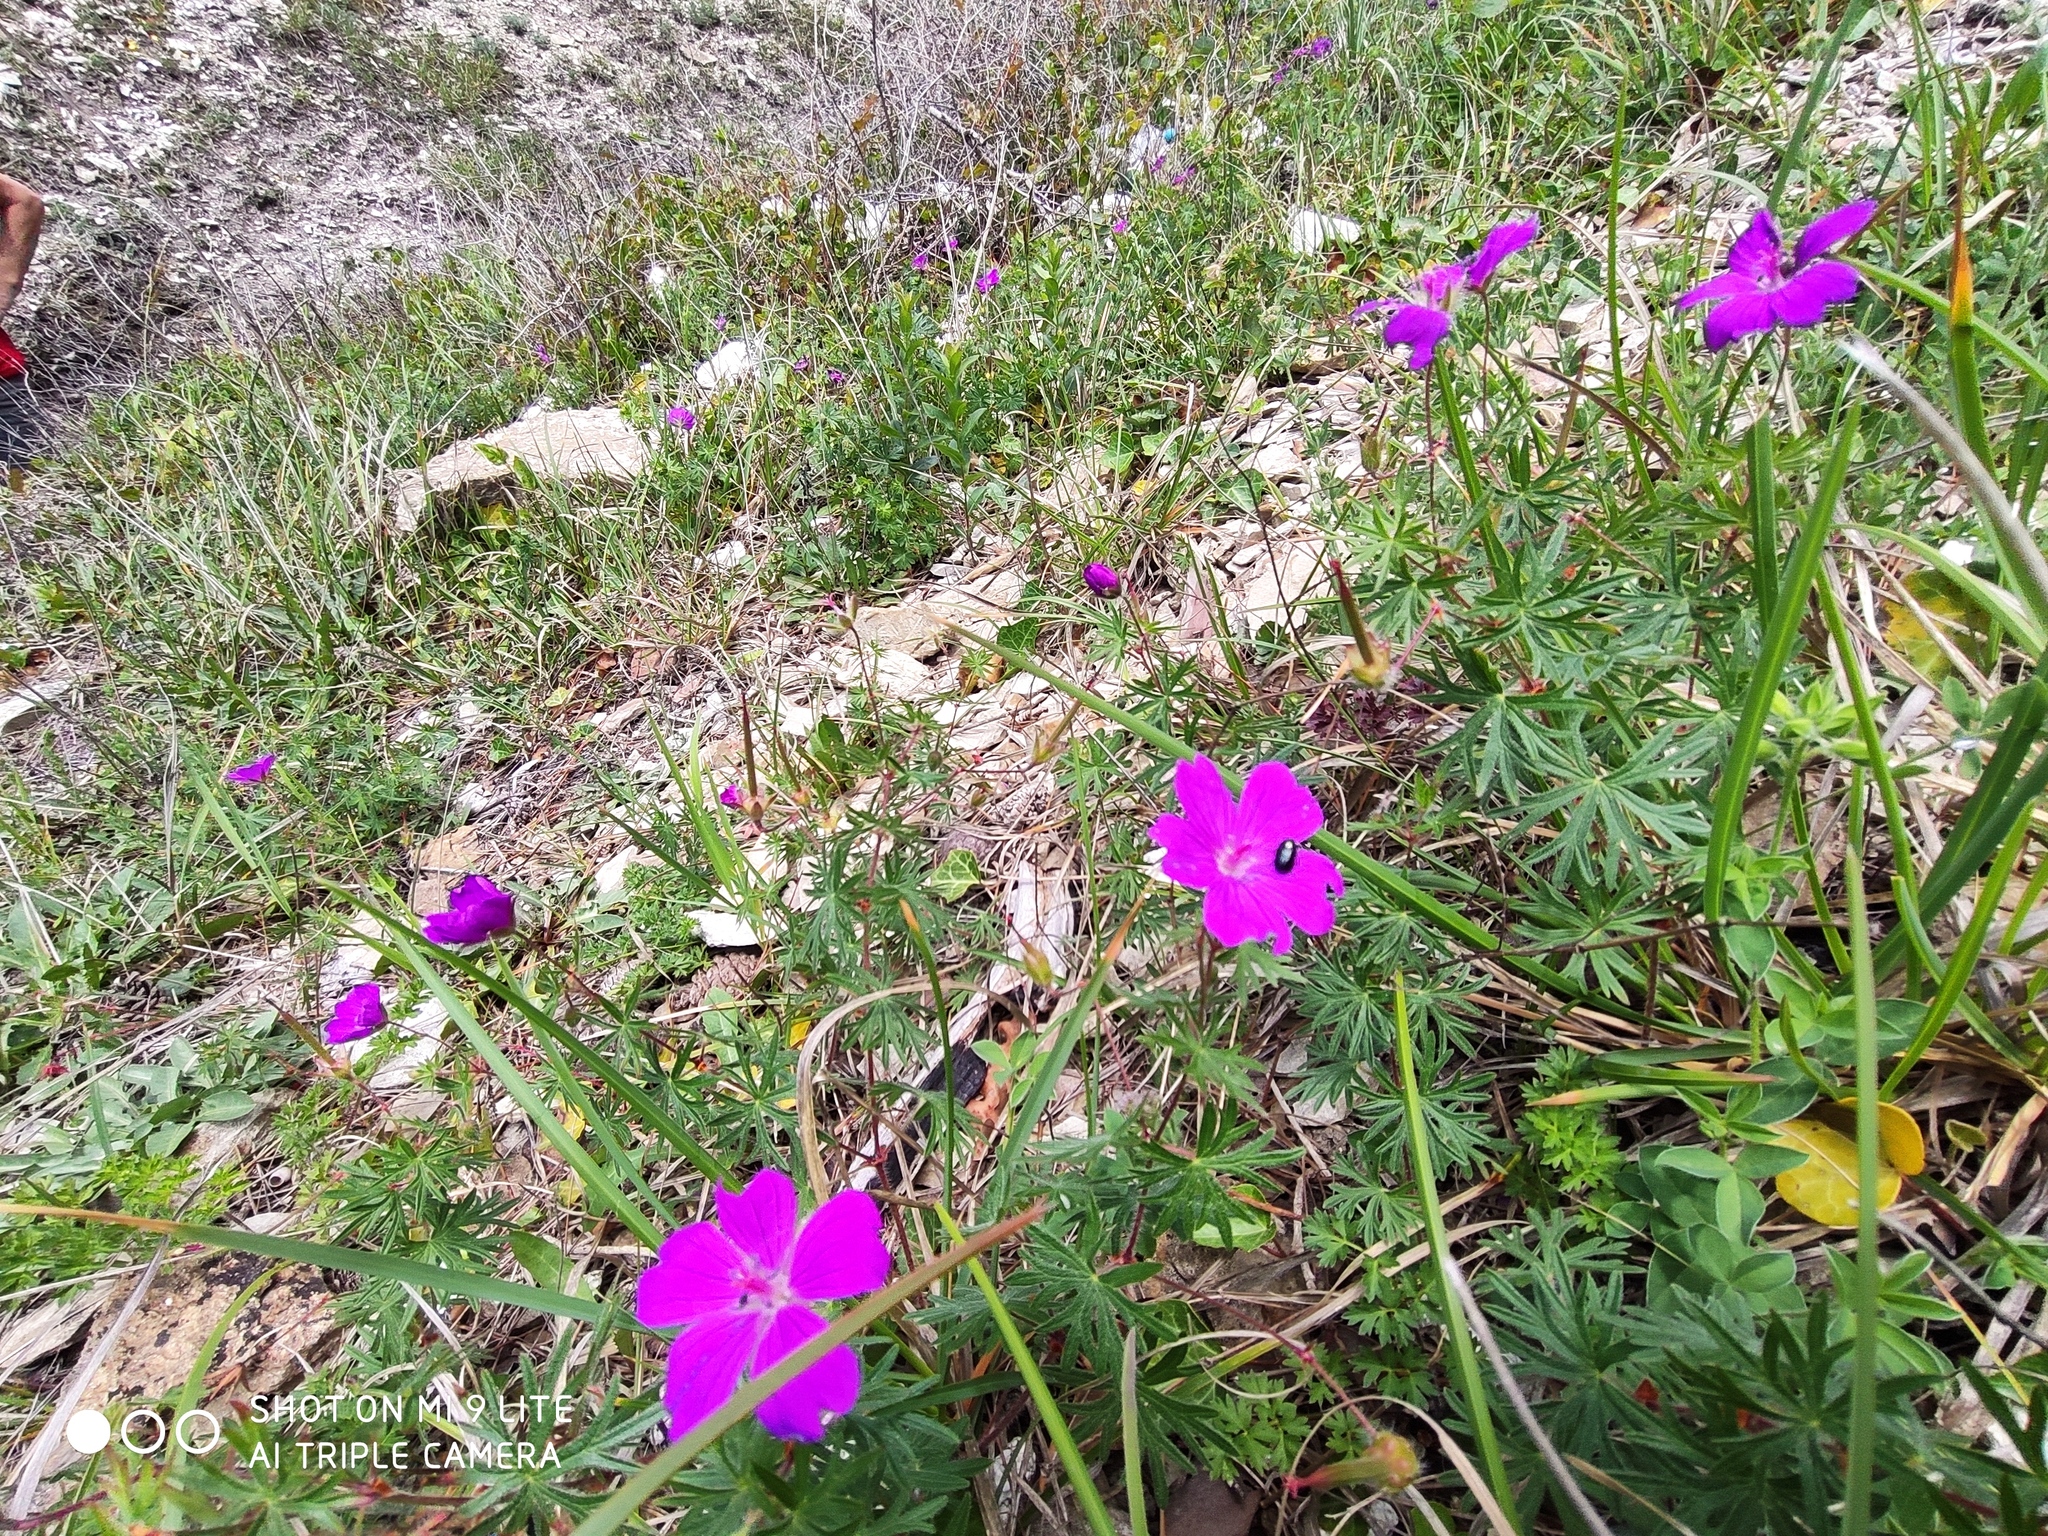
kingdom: Plantae
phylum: Tracheophyta
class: Magnoliopsida
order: Geraniales
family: Geraniaceae
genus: Geranium
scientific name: Geranium sanguineum
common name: Bloody crane's-bill
